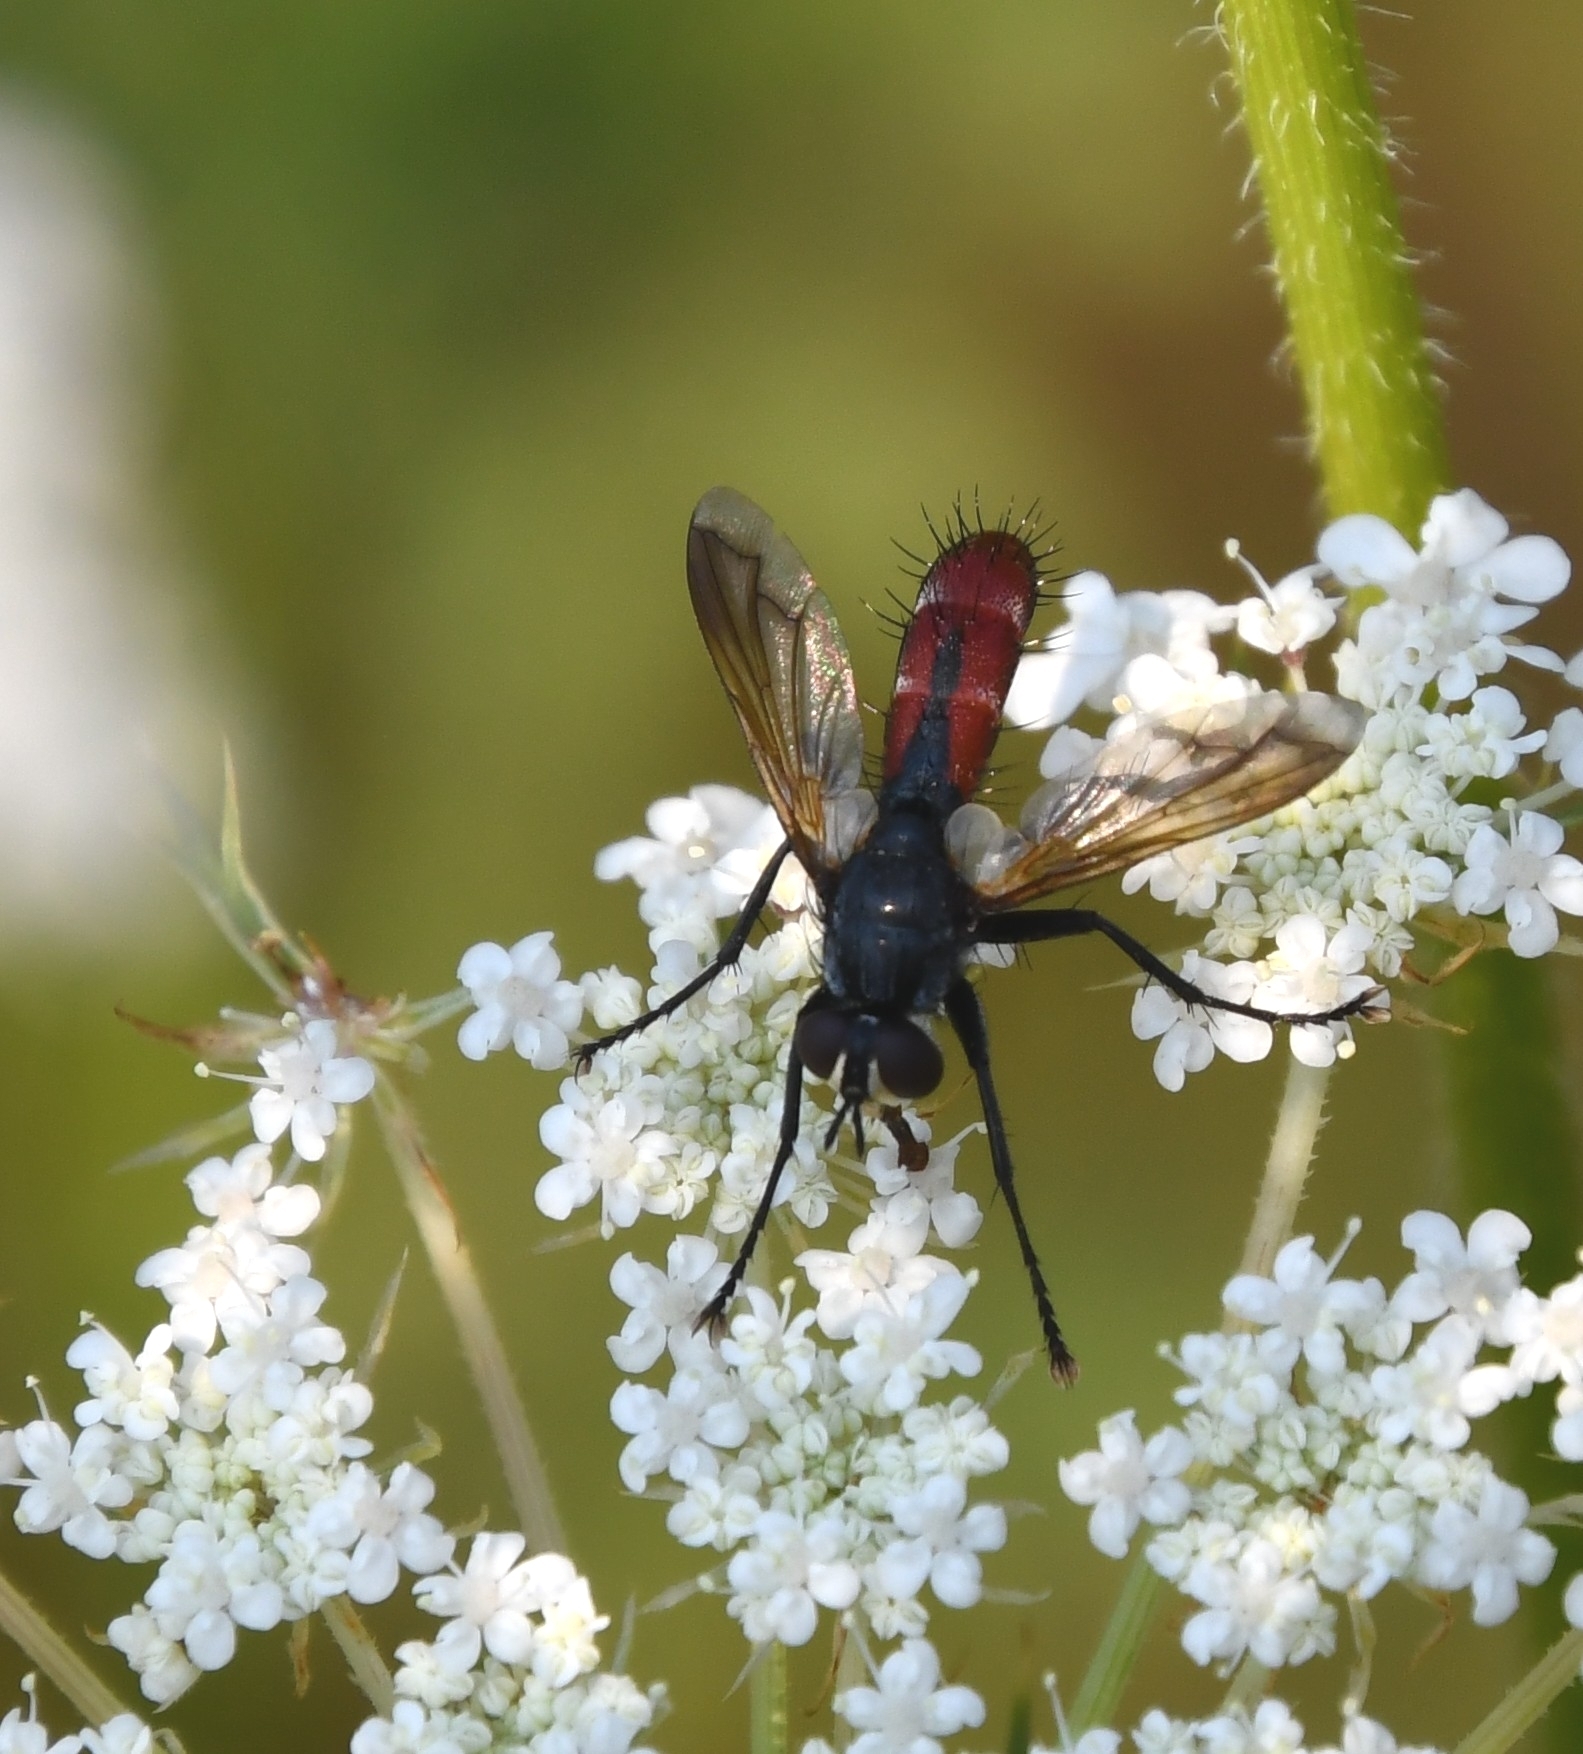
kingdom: Animalia
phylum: Arthropoda
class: Insecta
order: Diptera
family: Tachinidae
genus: Cylindromyia
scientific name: Cylindromyia bicolor
